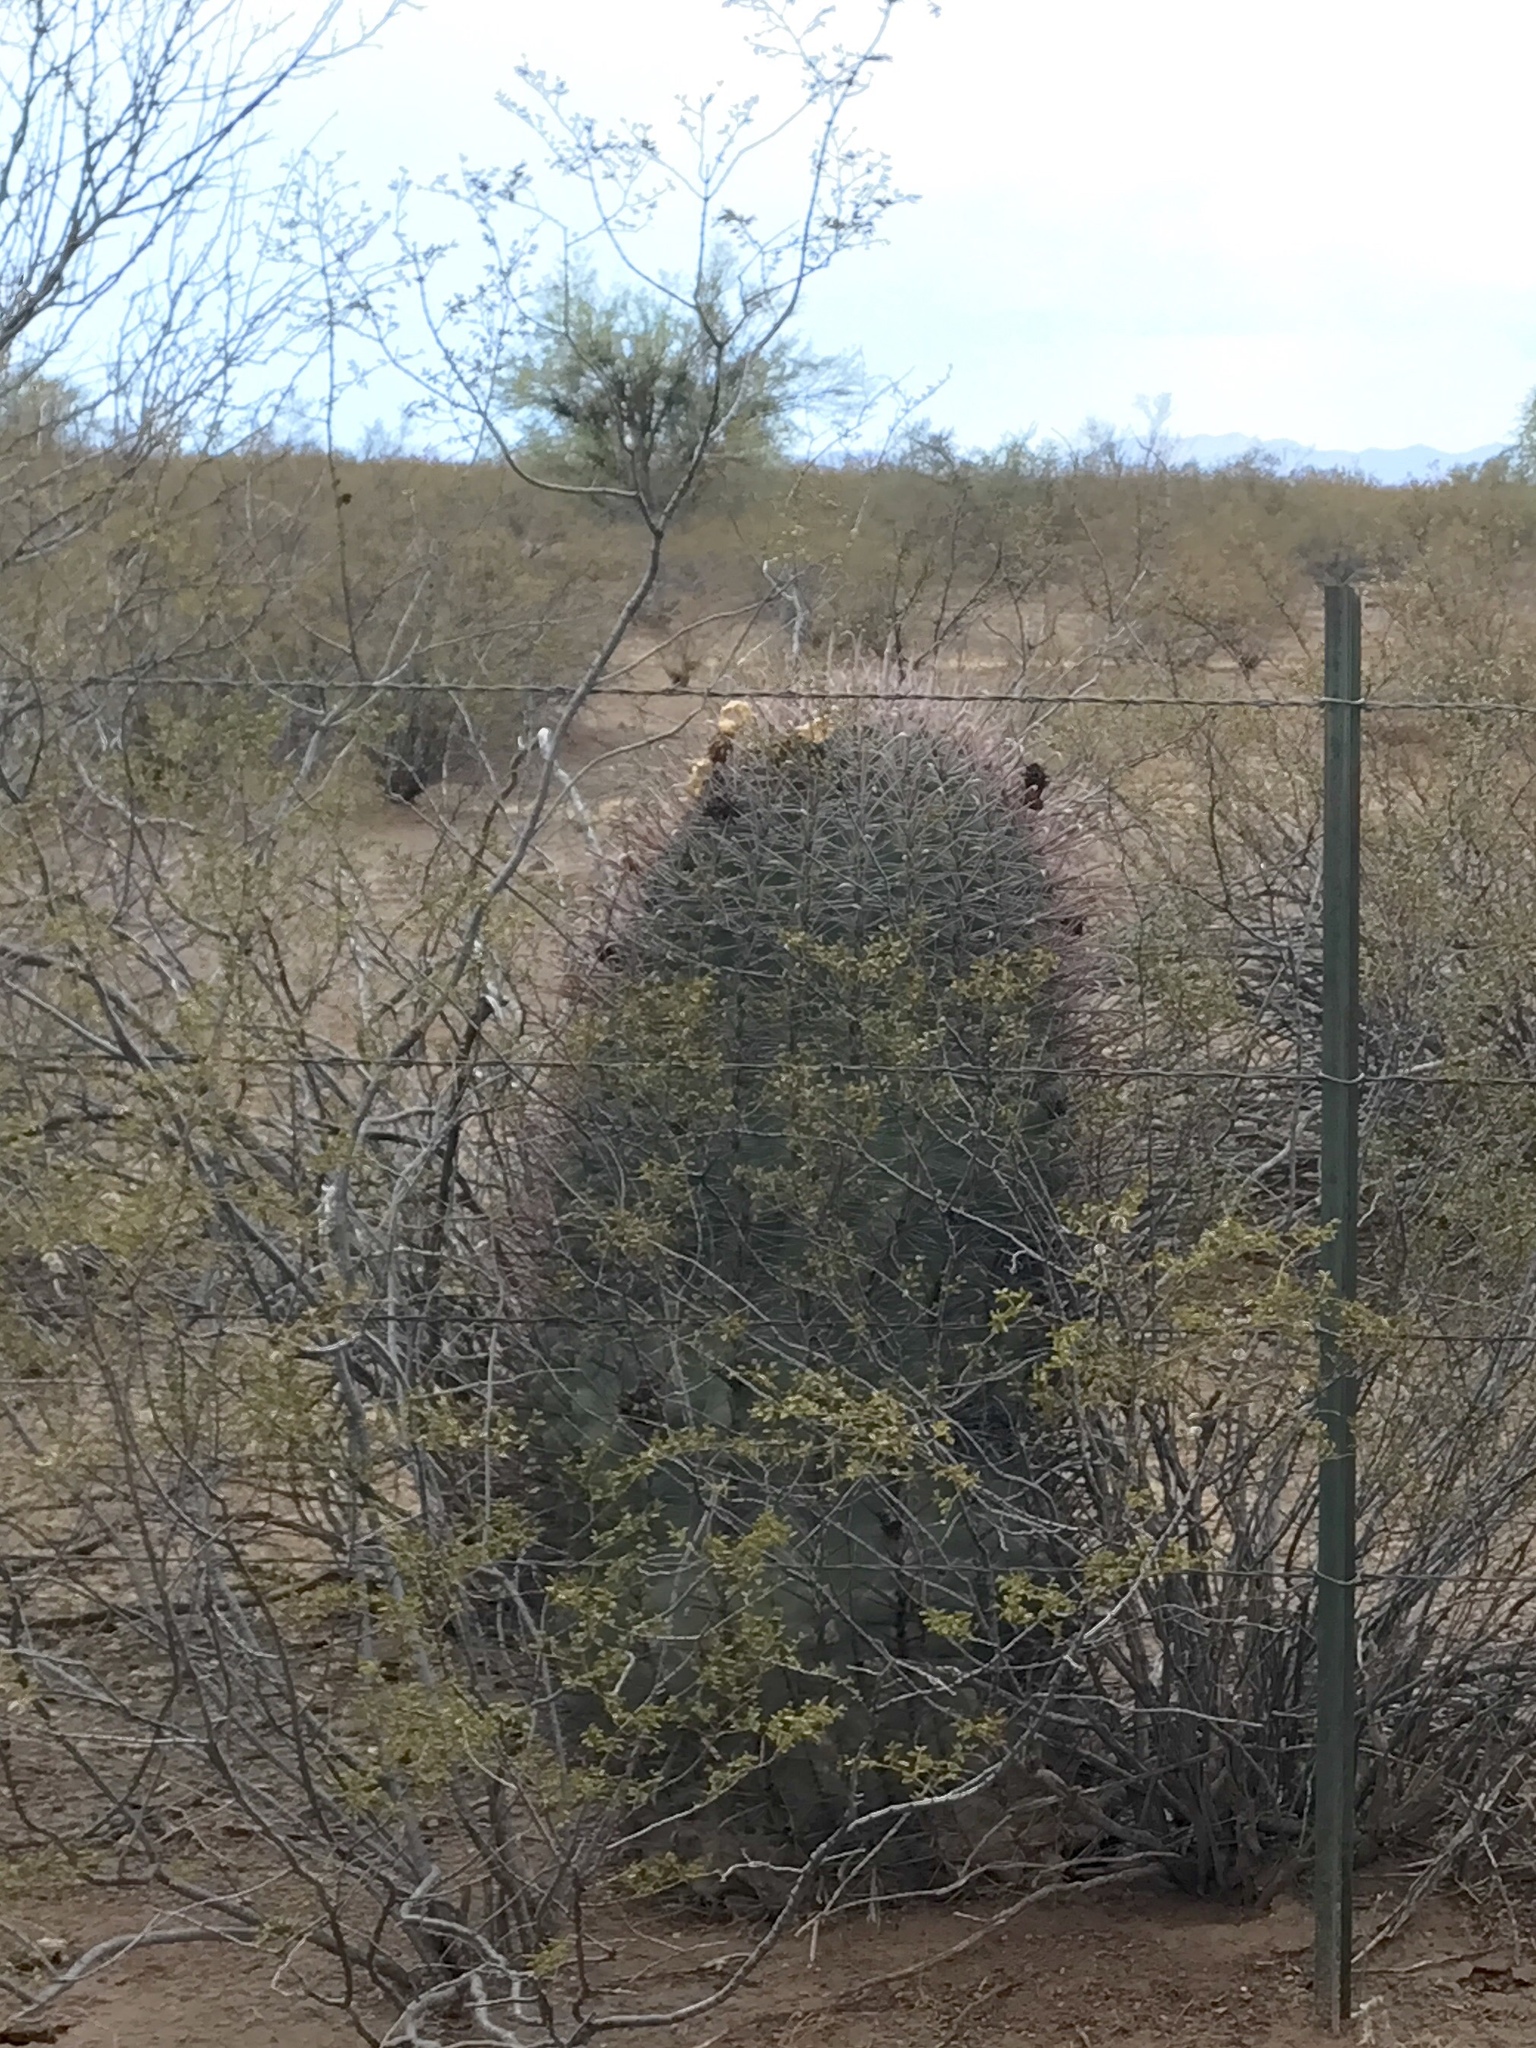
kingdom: Plantae
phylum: Tracheophyta
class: Magnoliopsida
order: Caryophyllales
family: Cactaceae
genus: Ferocactus
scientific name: Ferocactus wislizeni
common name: Candy barrel cactus
